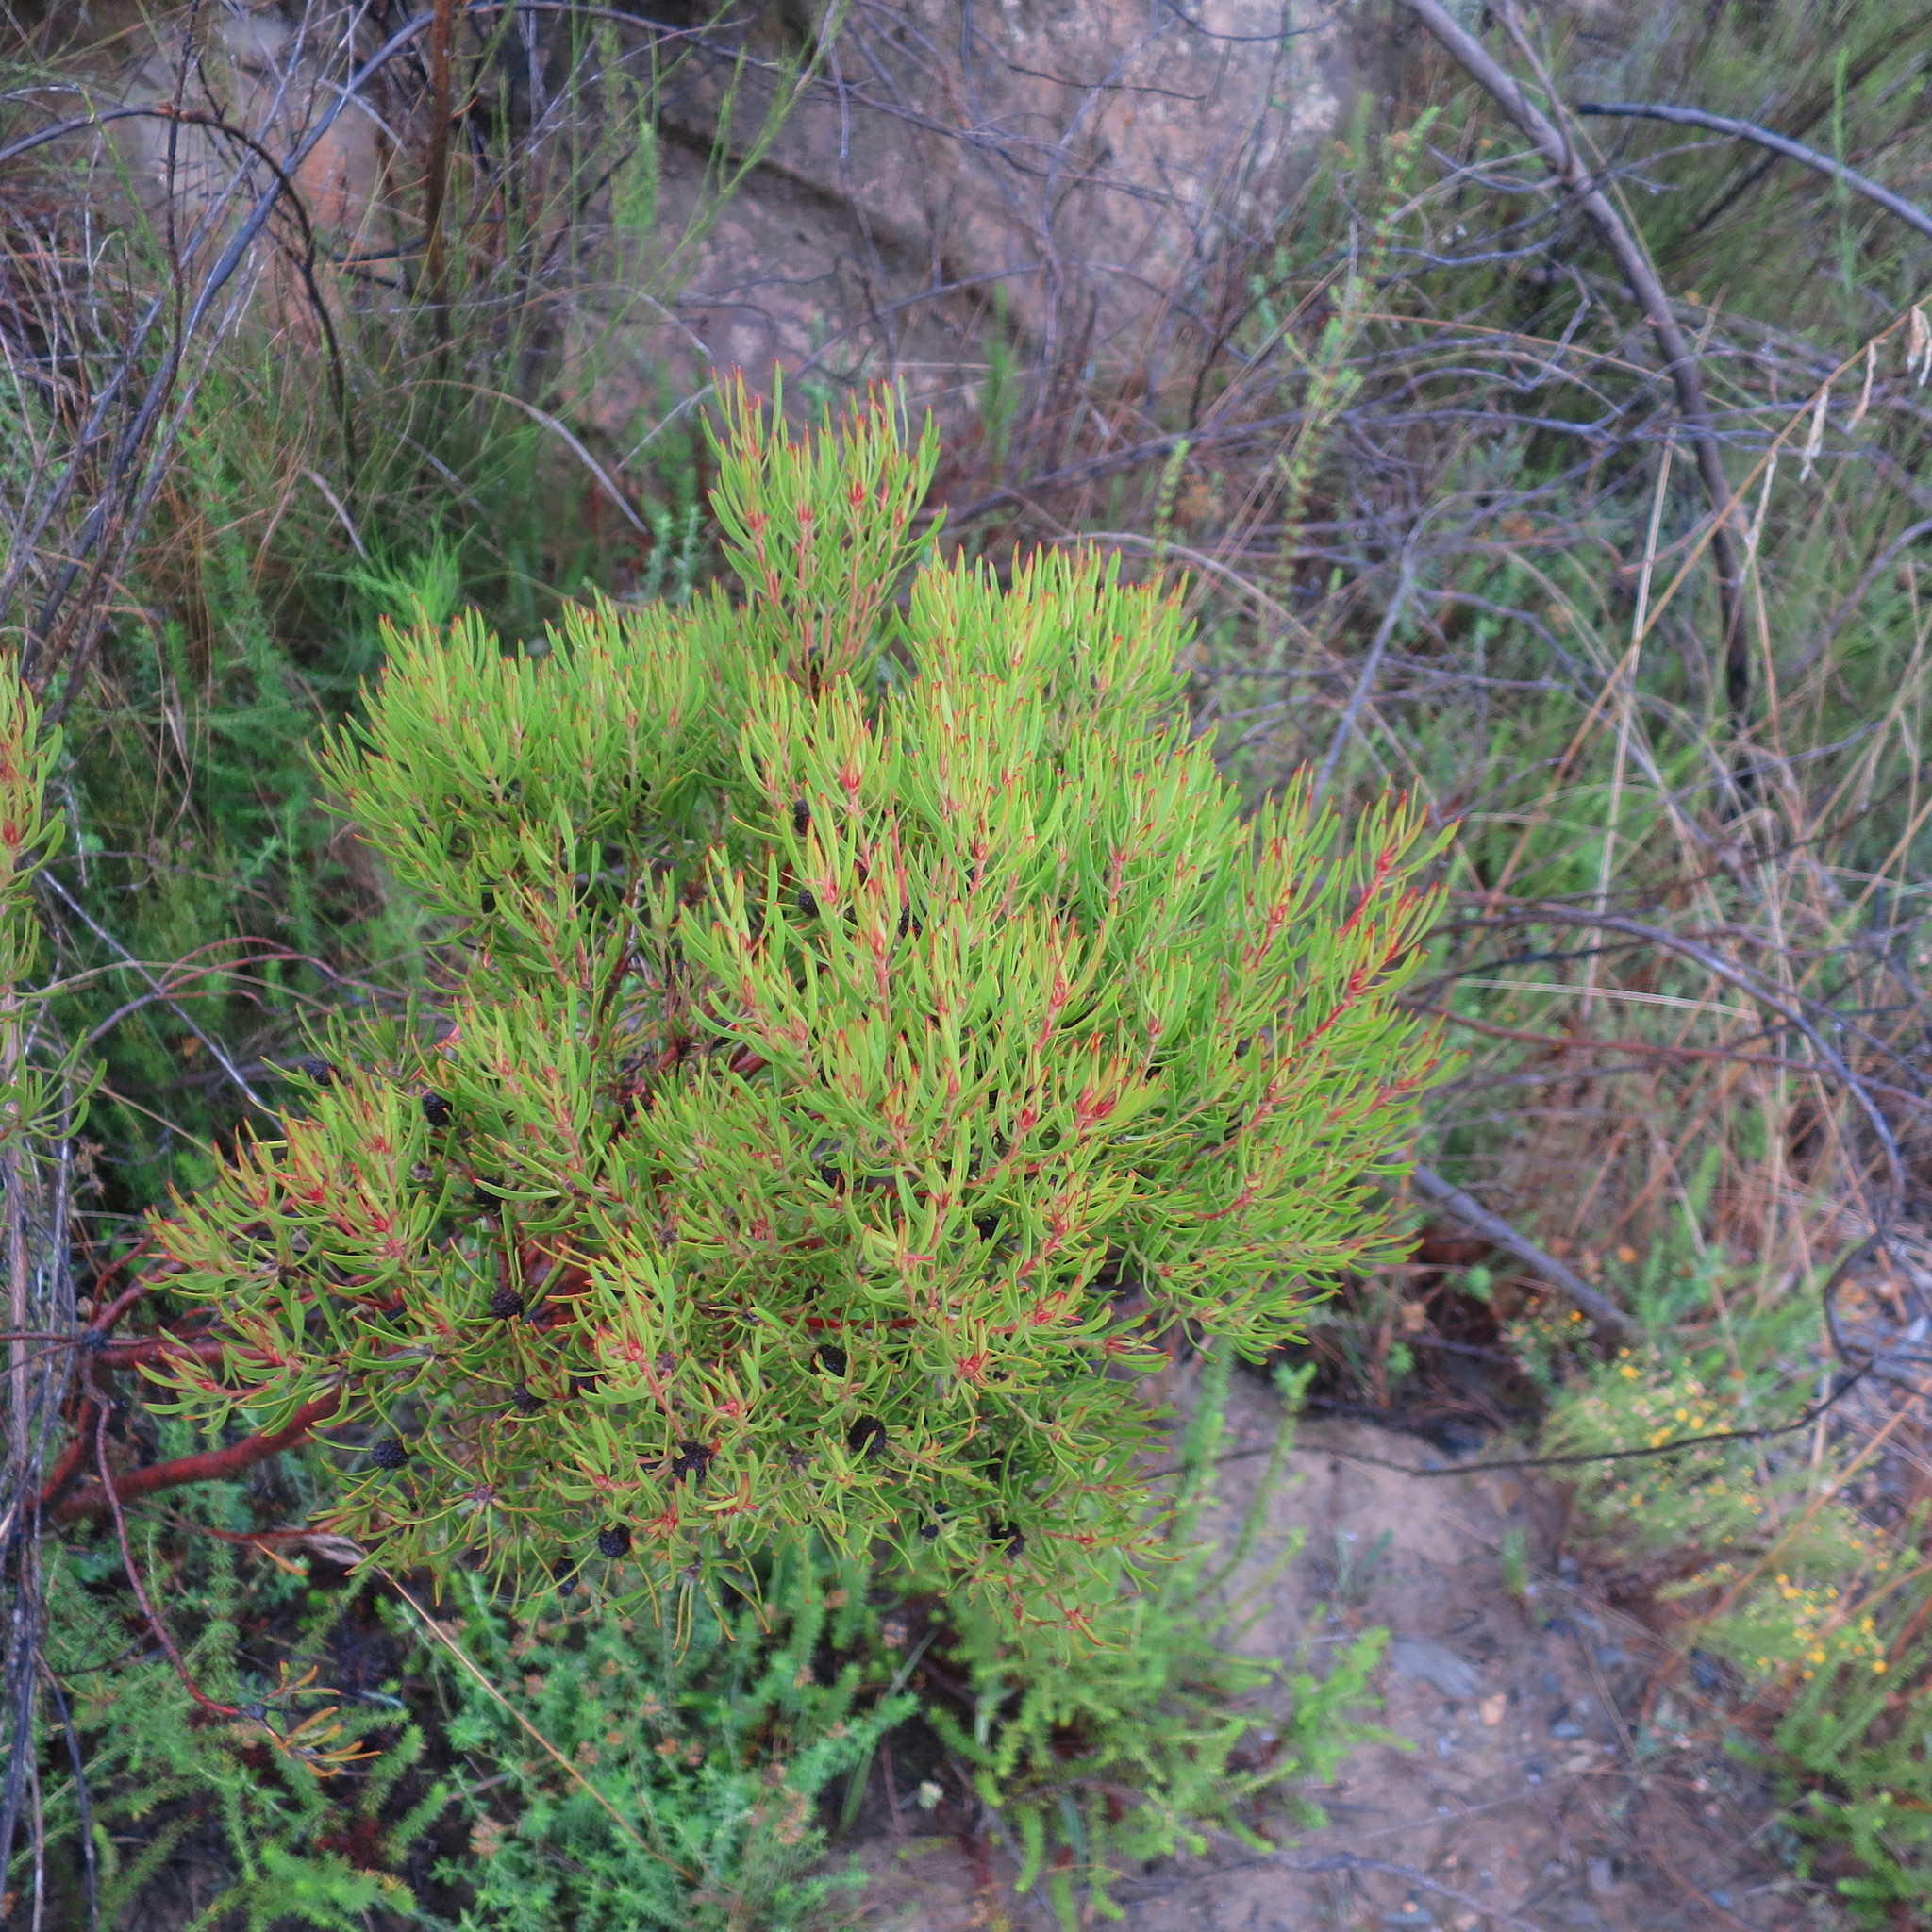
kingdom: Plantae
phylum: Tracheophyta
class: Magnoliopsida
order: Proteales
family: Proteaceae
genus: Leucadendron
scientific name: Leucadendron salignum
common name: Common sunshine conebush
